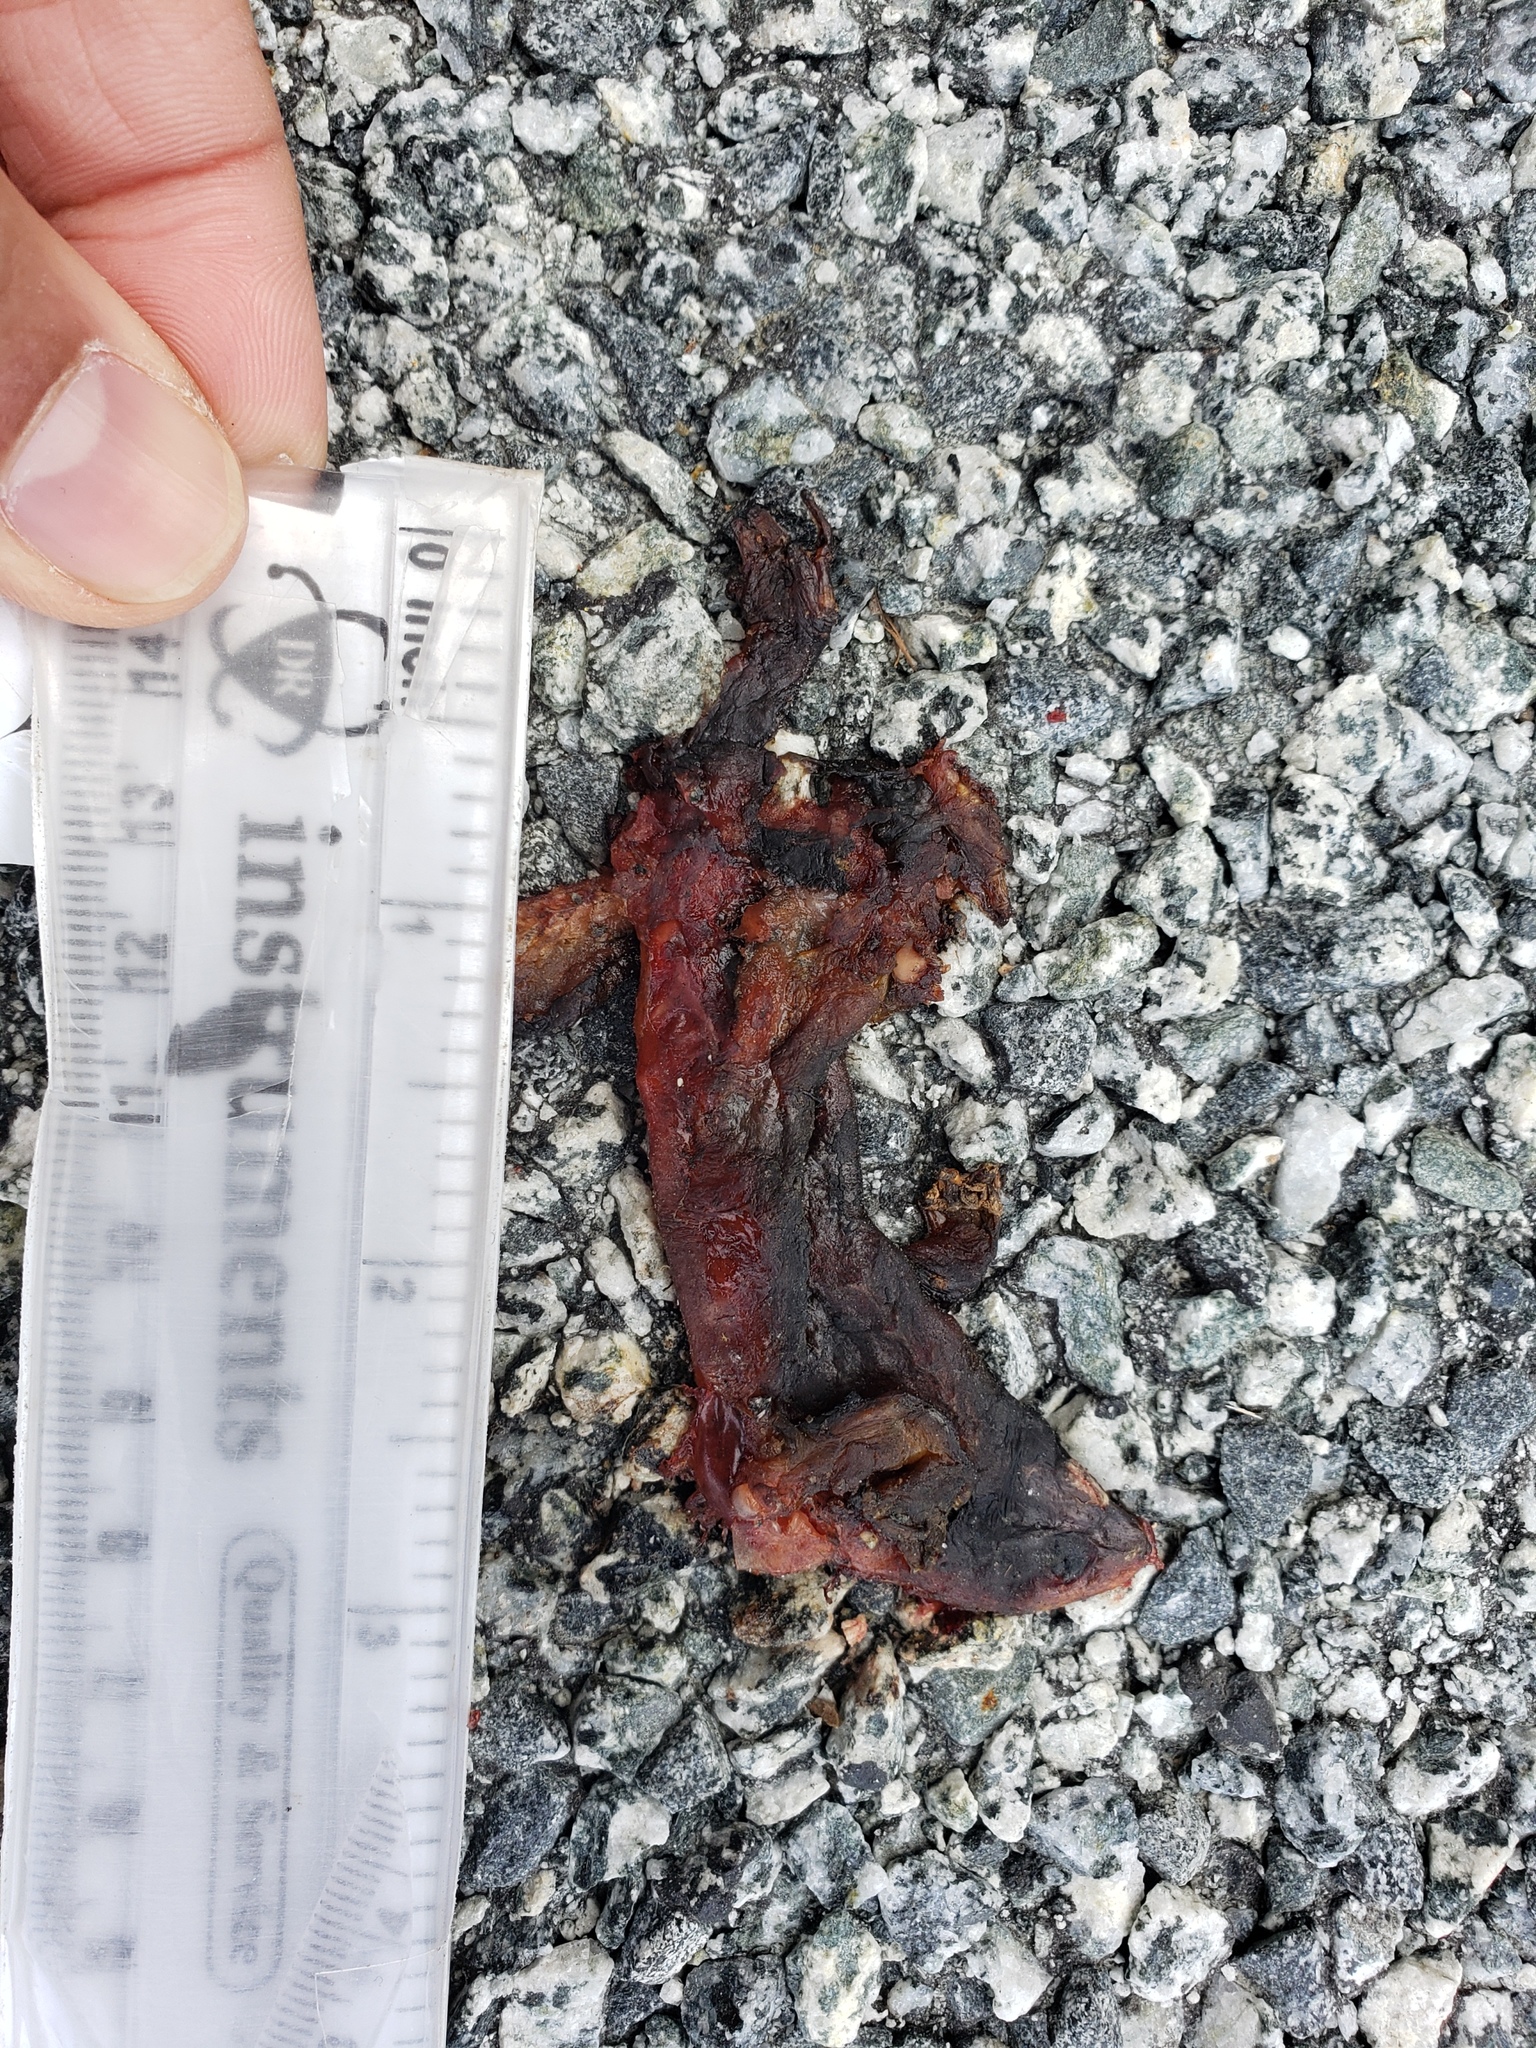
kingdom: Animalia
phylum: Chordata
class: Amphibia
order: Caudata
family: Salamandridae
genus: Taricha
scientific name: Taricha
